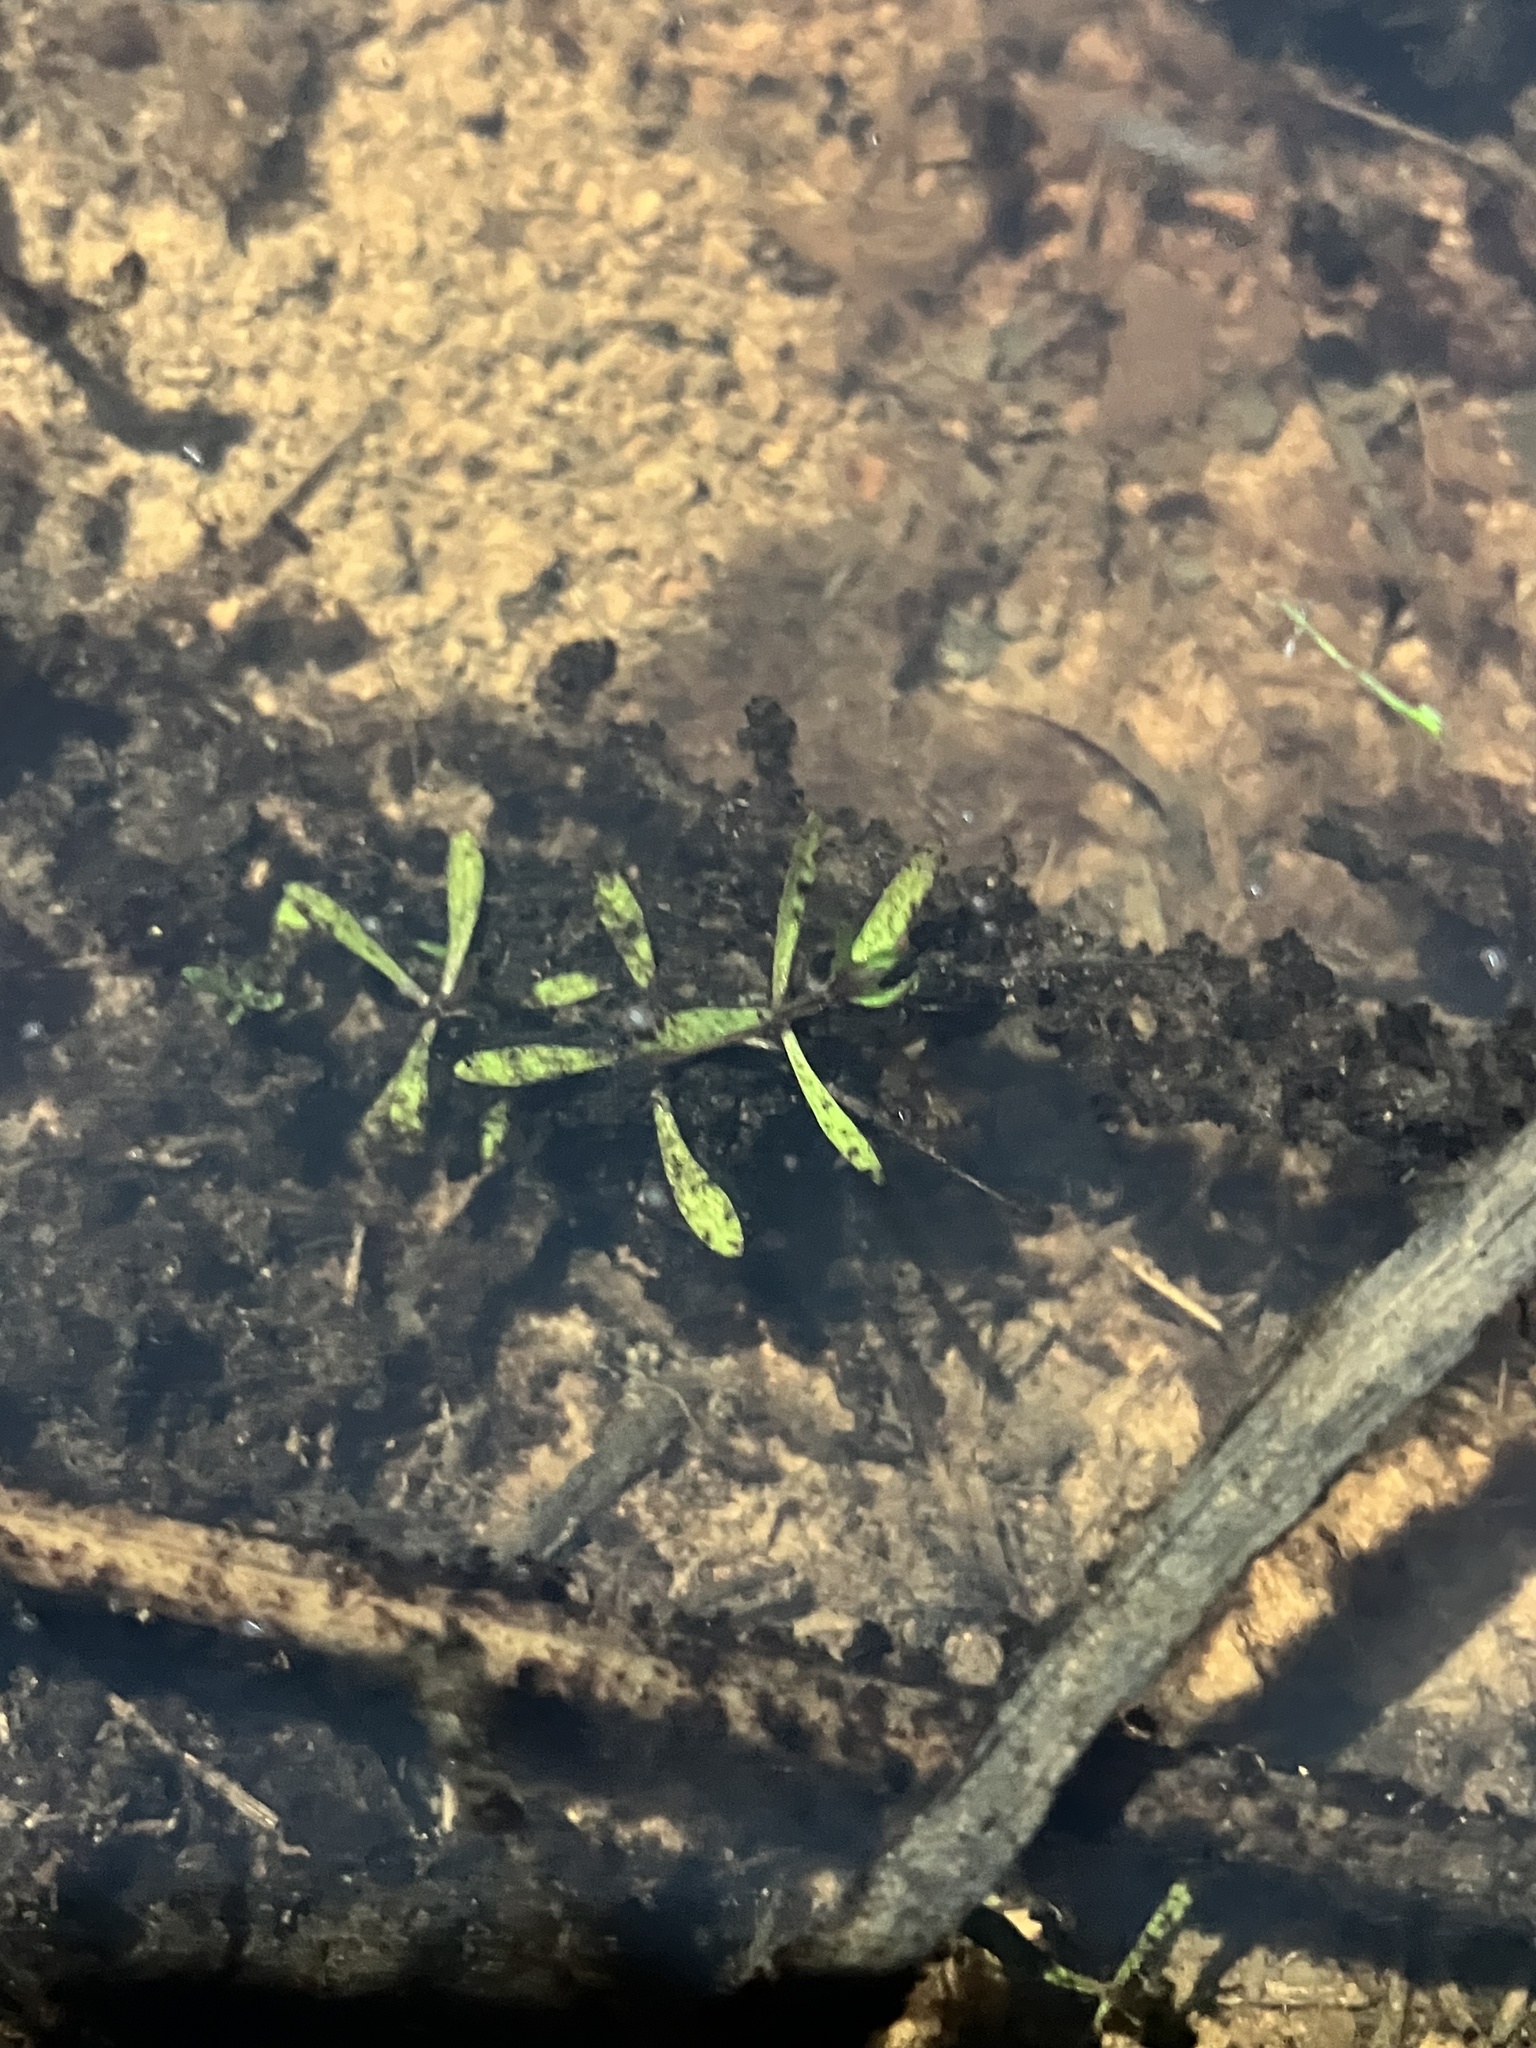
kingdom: Plantae
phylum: Tracheophyta
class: Magnoliopsida
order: Lamiales
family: Plantaginaceae
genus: Callitriche
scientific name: Callitriche heterophylla
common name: Two-headed water-starwort
